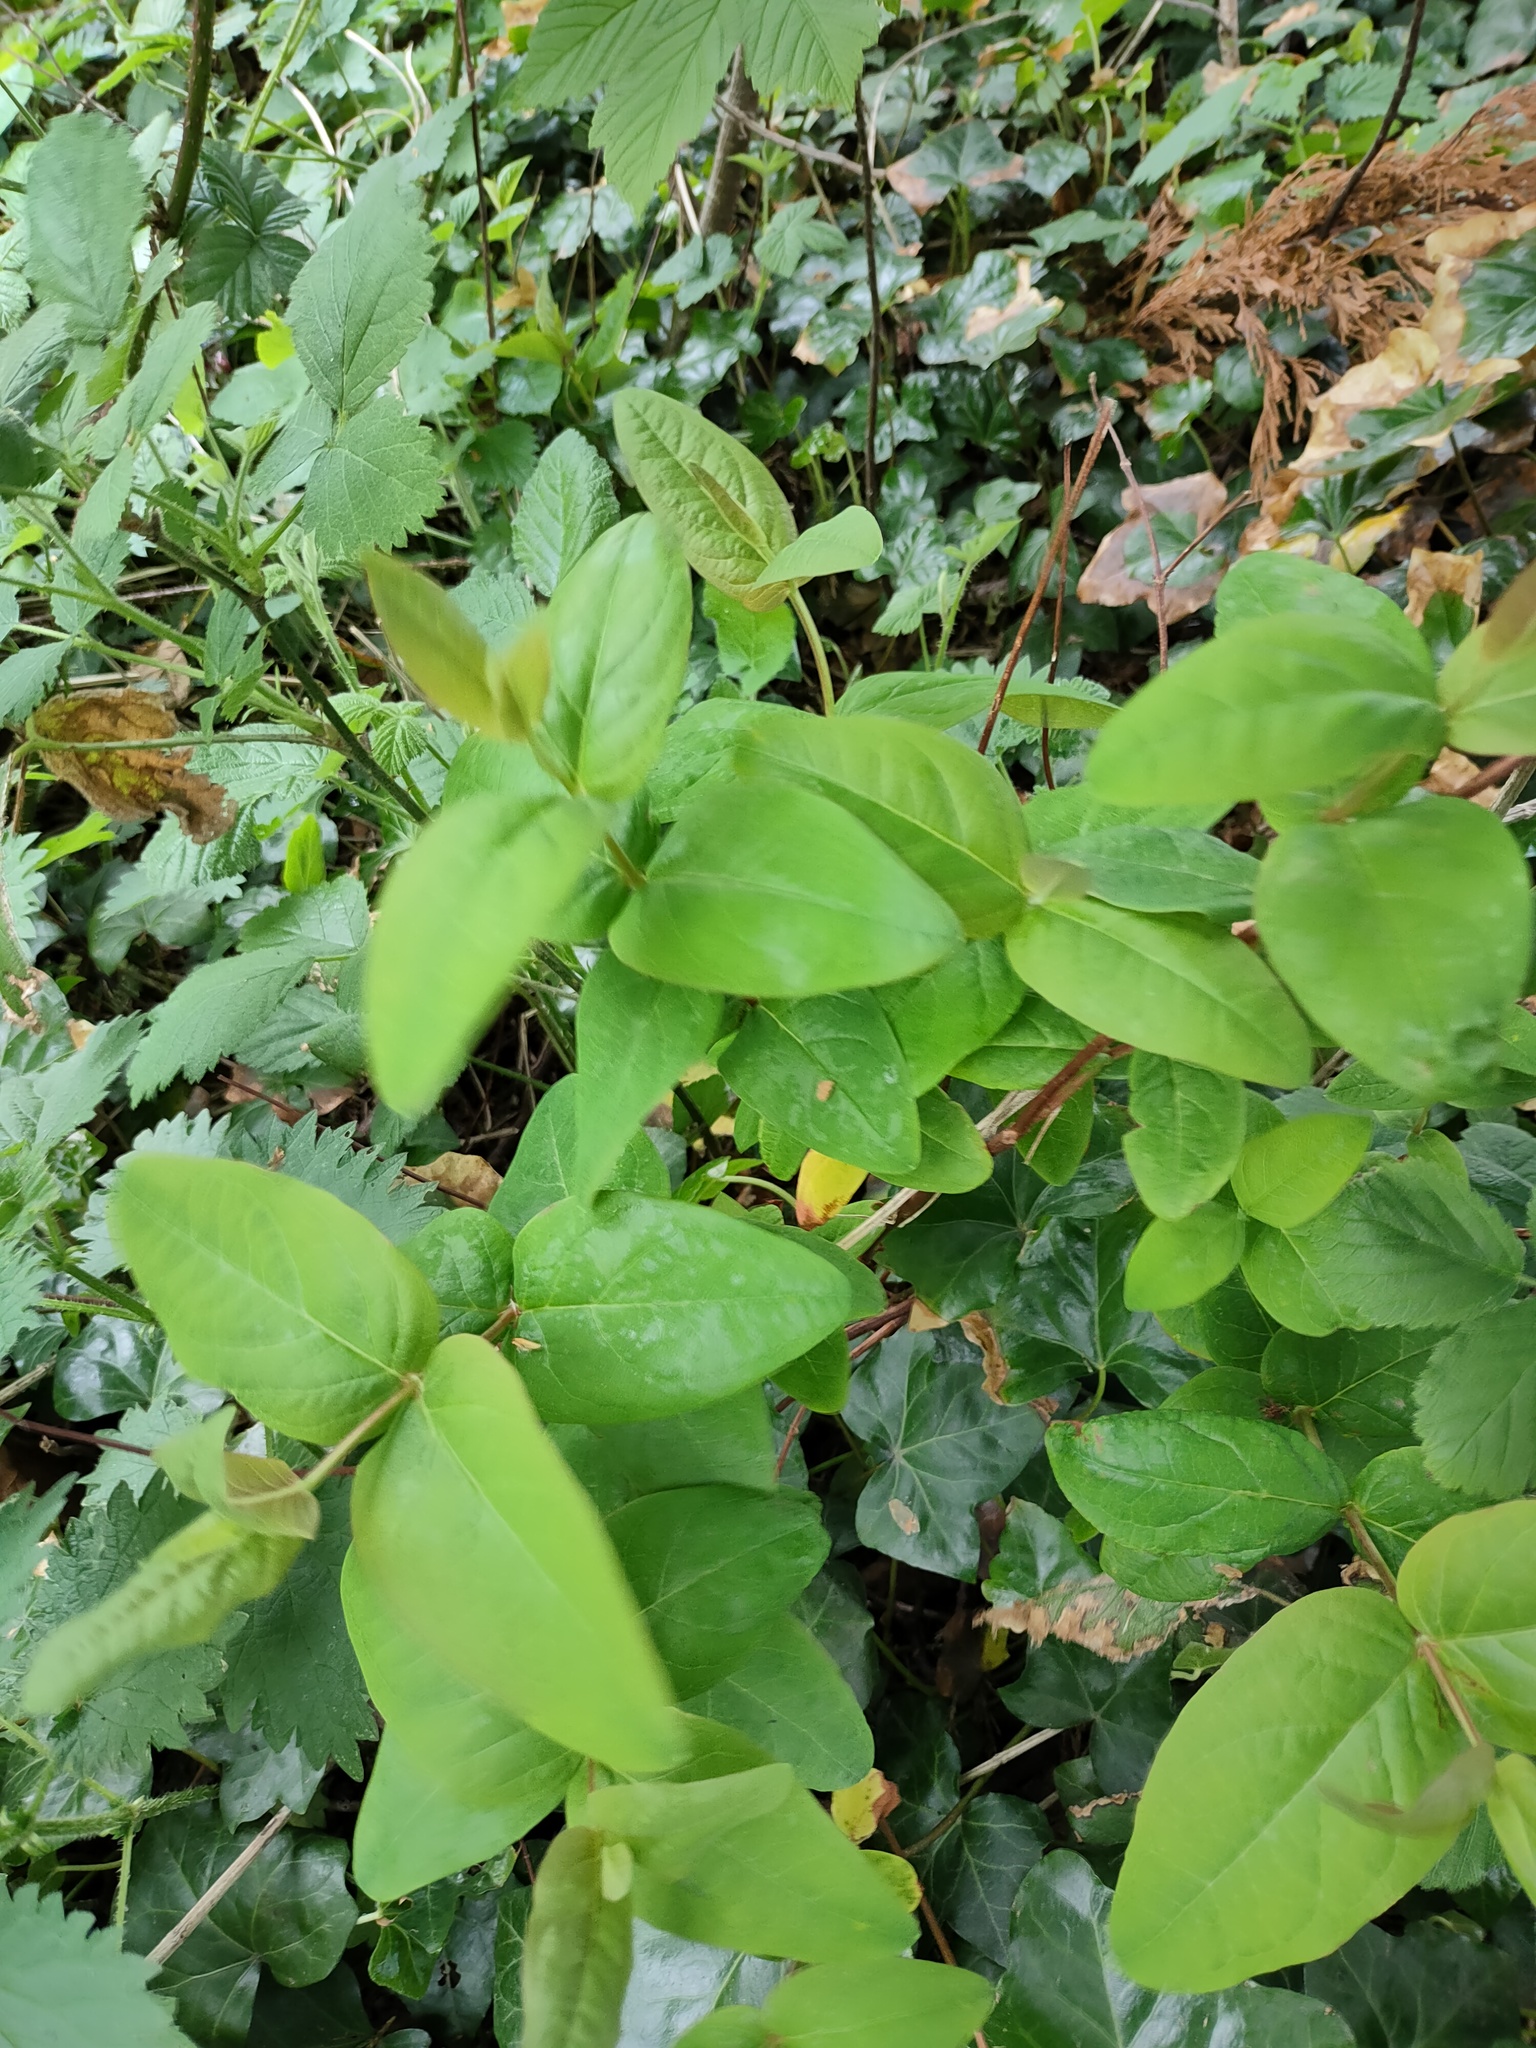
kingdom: Plantae
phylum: Tracheophyta
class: Magnoliopsida
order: Malpighiales
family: Hypericaceae
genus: Hypericum
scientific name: Hypericum androsaemum
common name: Sweet-amber
